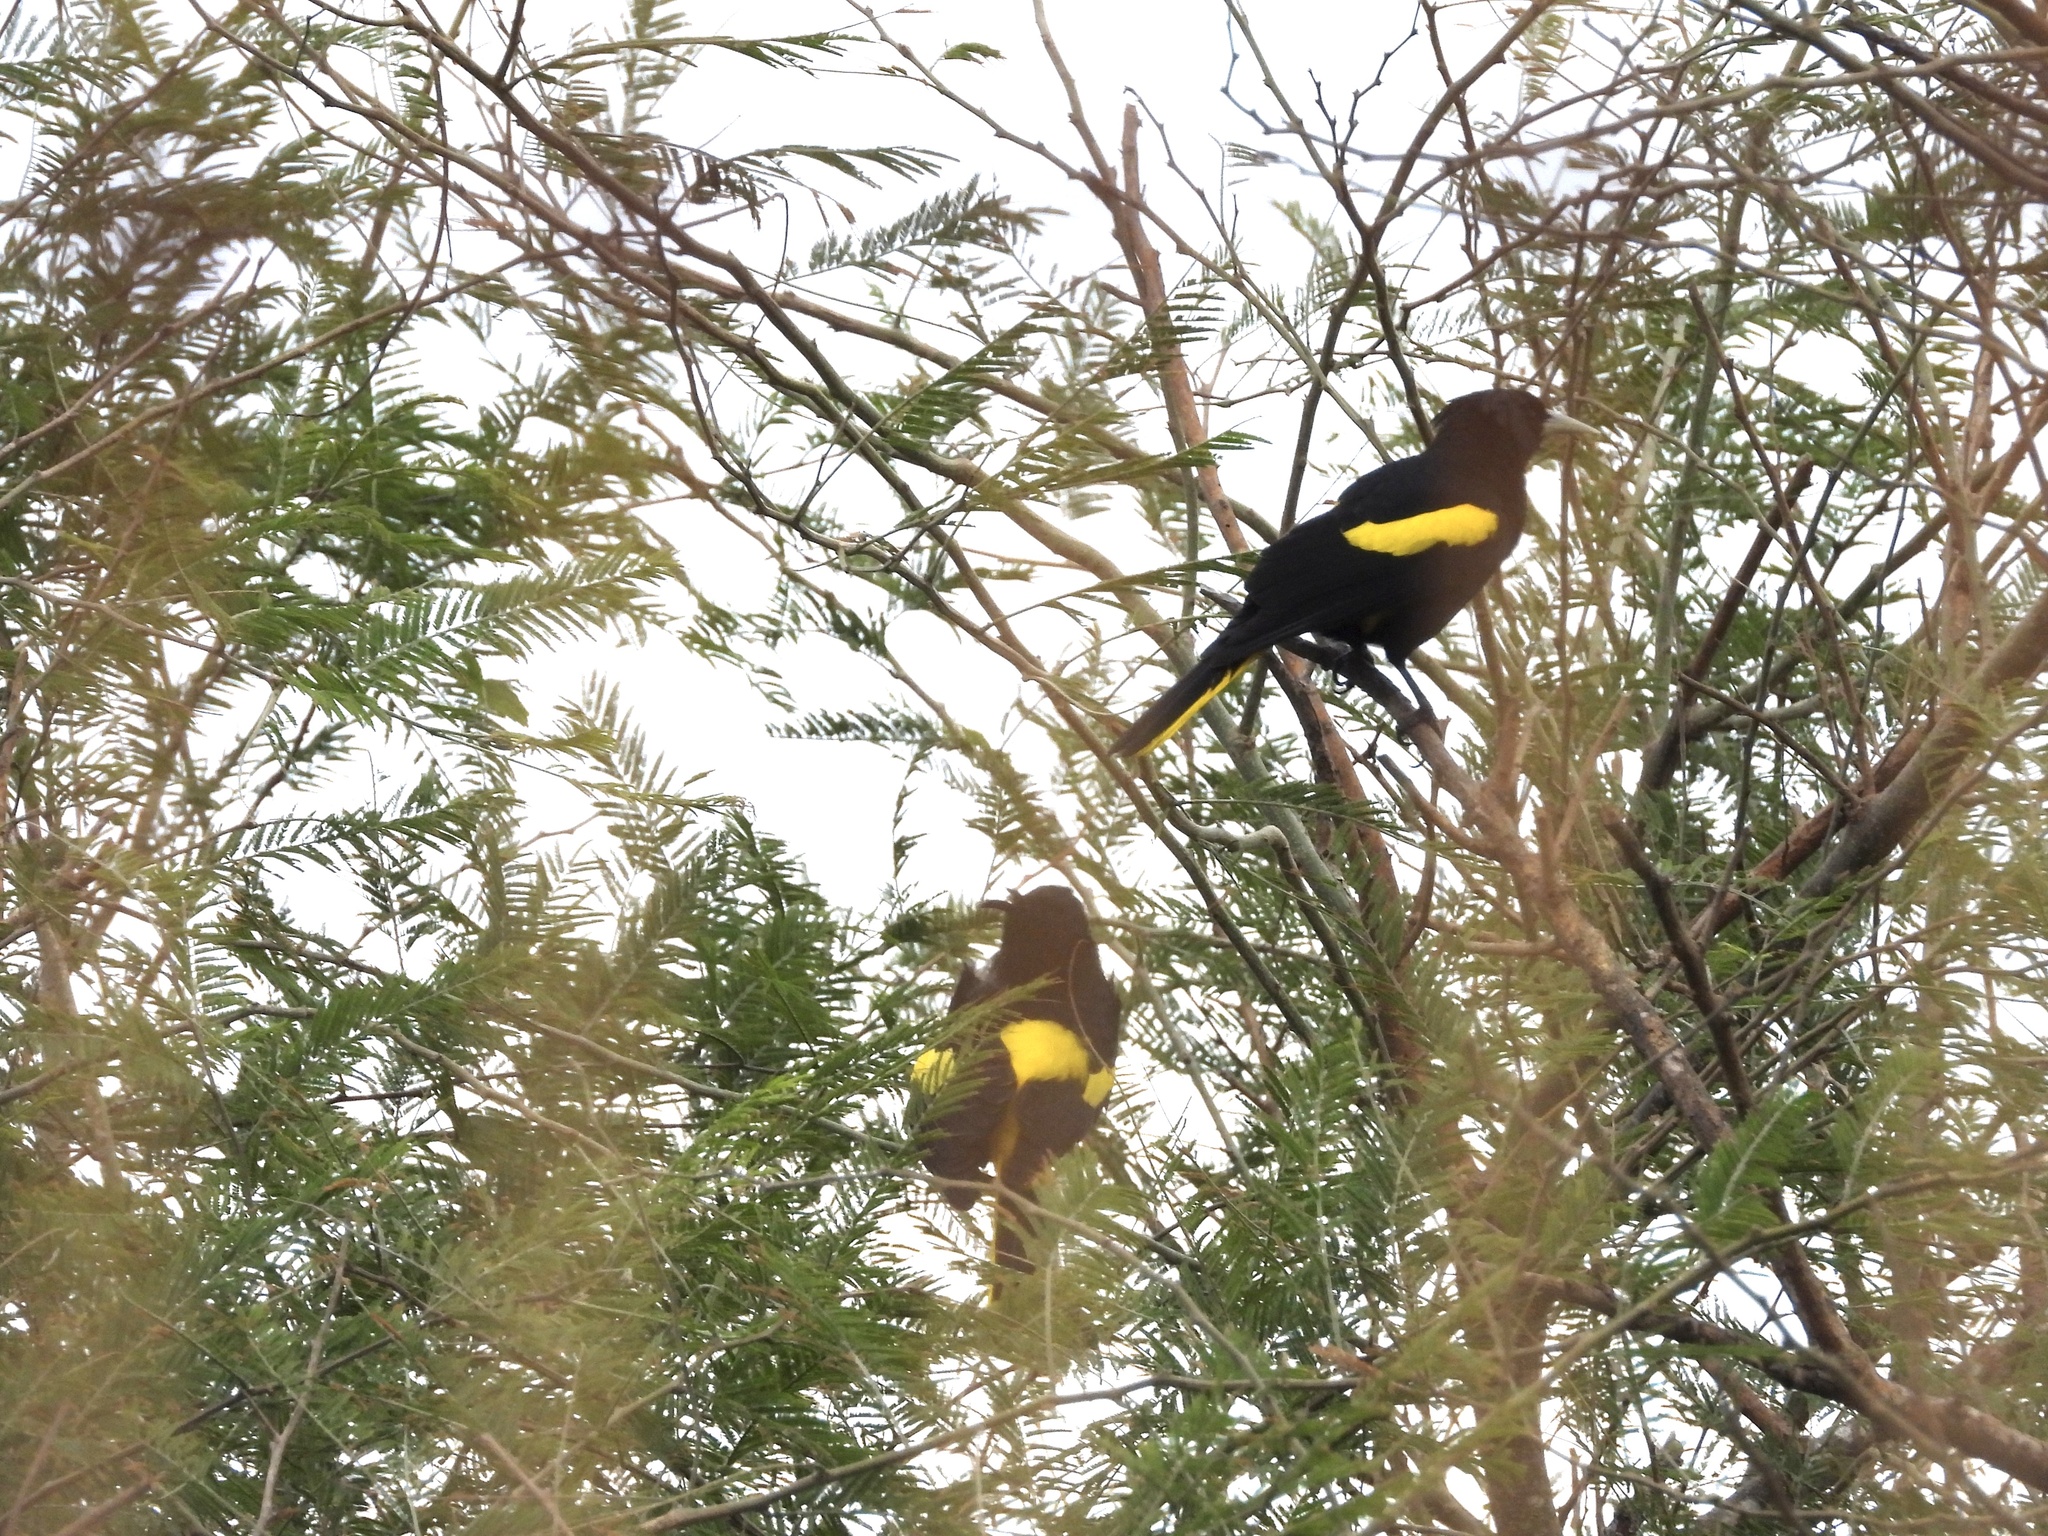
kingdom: Animalia
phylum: Chordata
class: Aves
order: Passeriformes
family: Icteridae
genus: Cacicus
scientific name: Cacicus melanicterus
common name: Yellow-winged cacique
